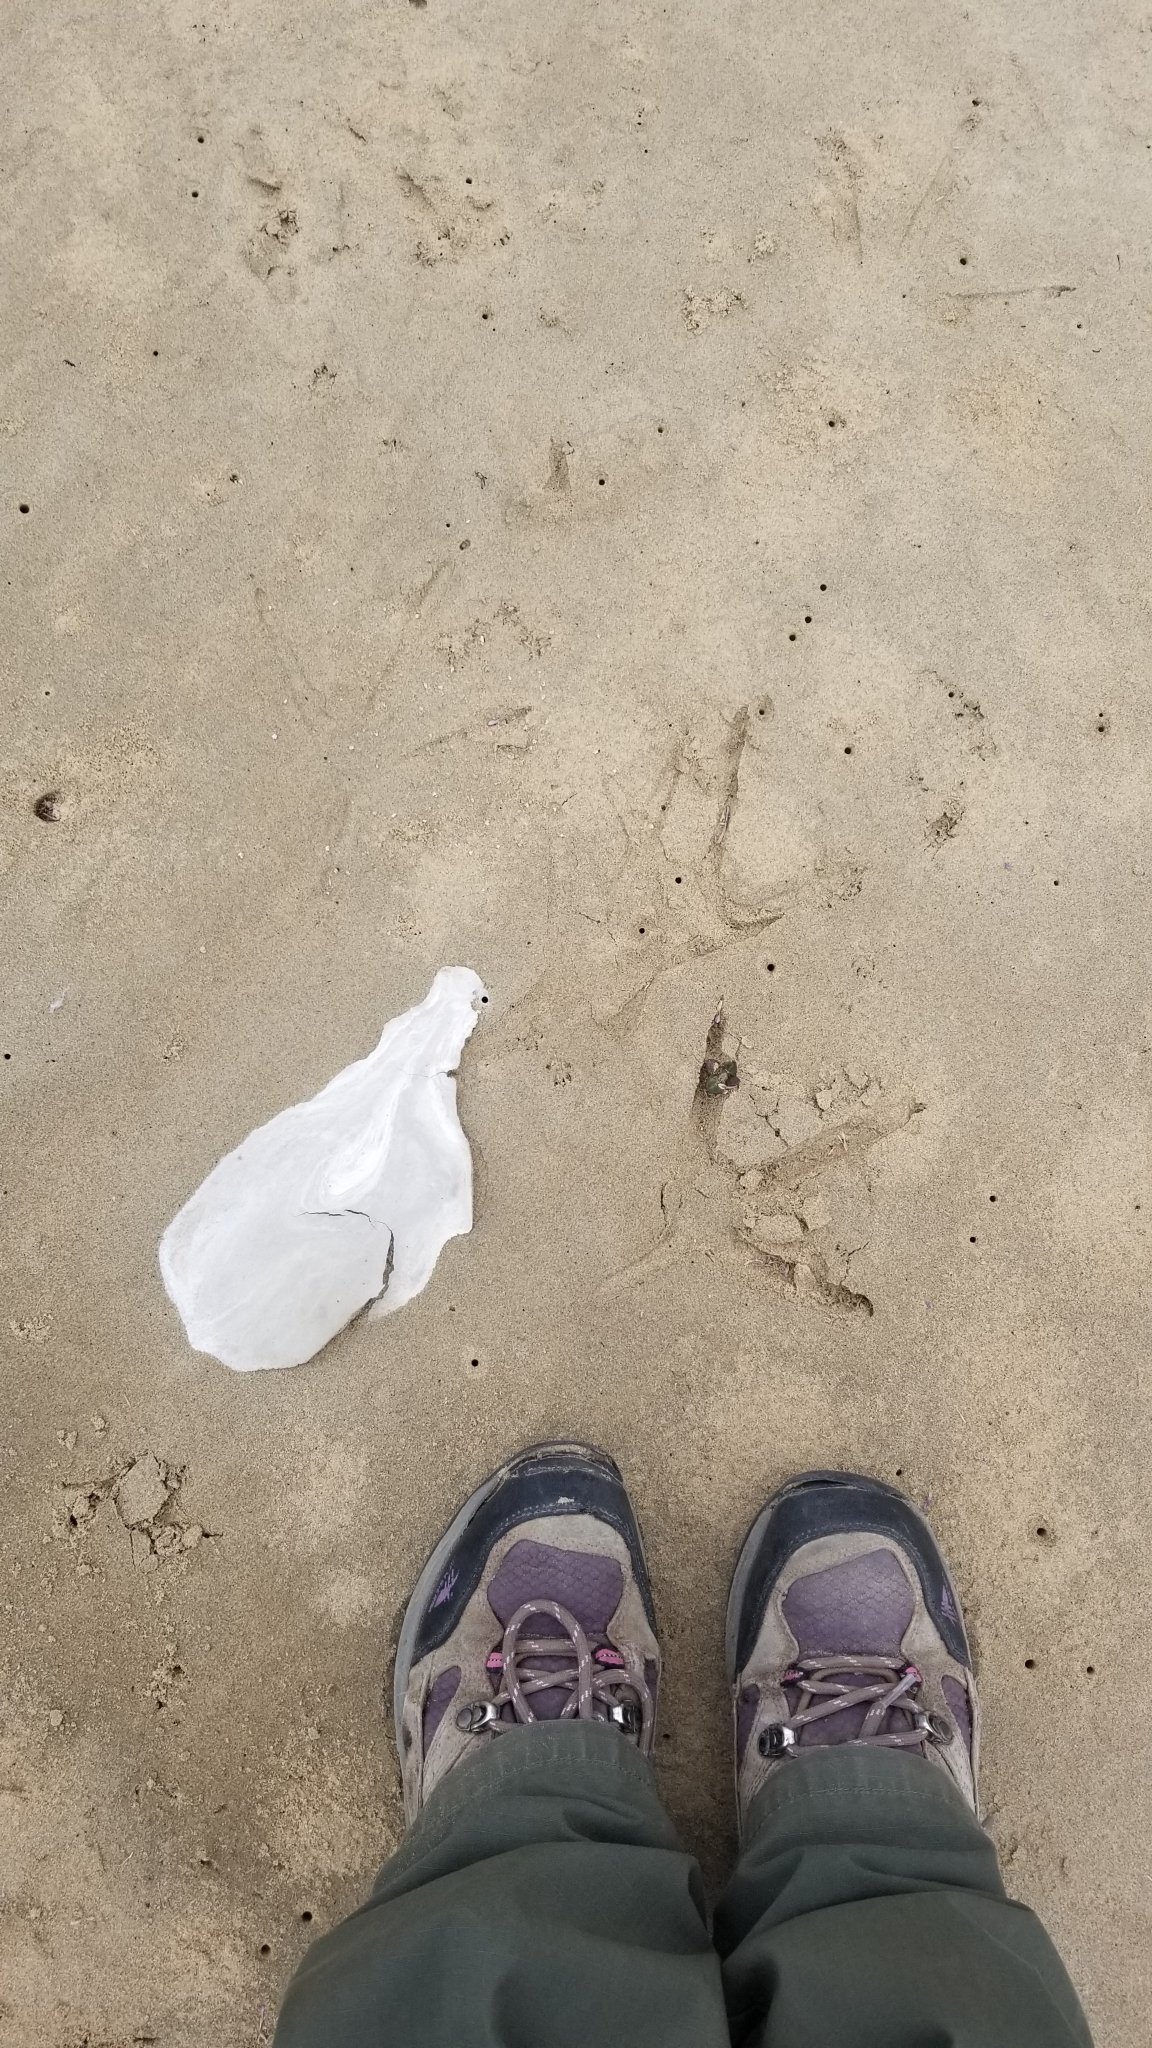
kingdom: Animalia
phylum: Chordata
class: Aves
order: Pelecaniformes
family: Ardeidae
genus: Ardea
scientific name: Ardea herodias
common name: Great blue heron
